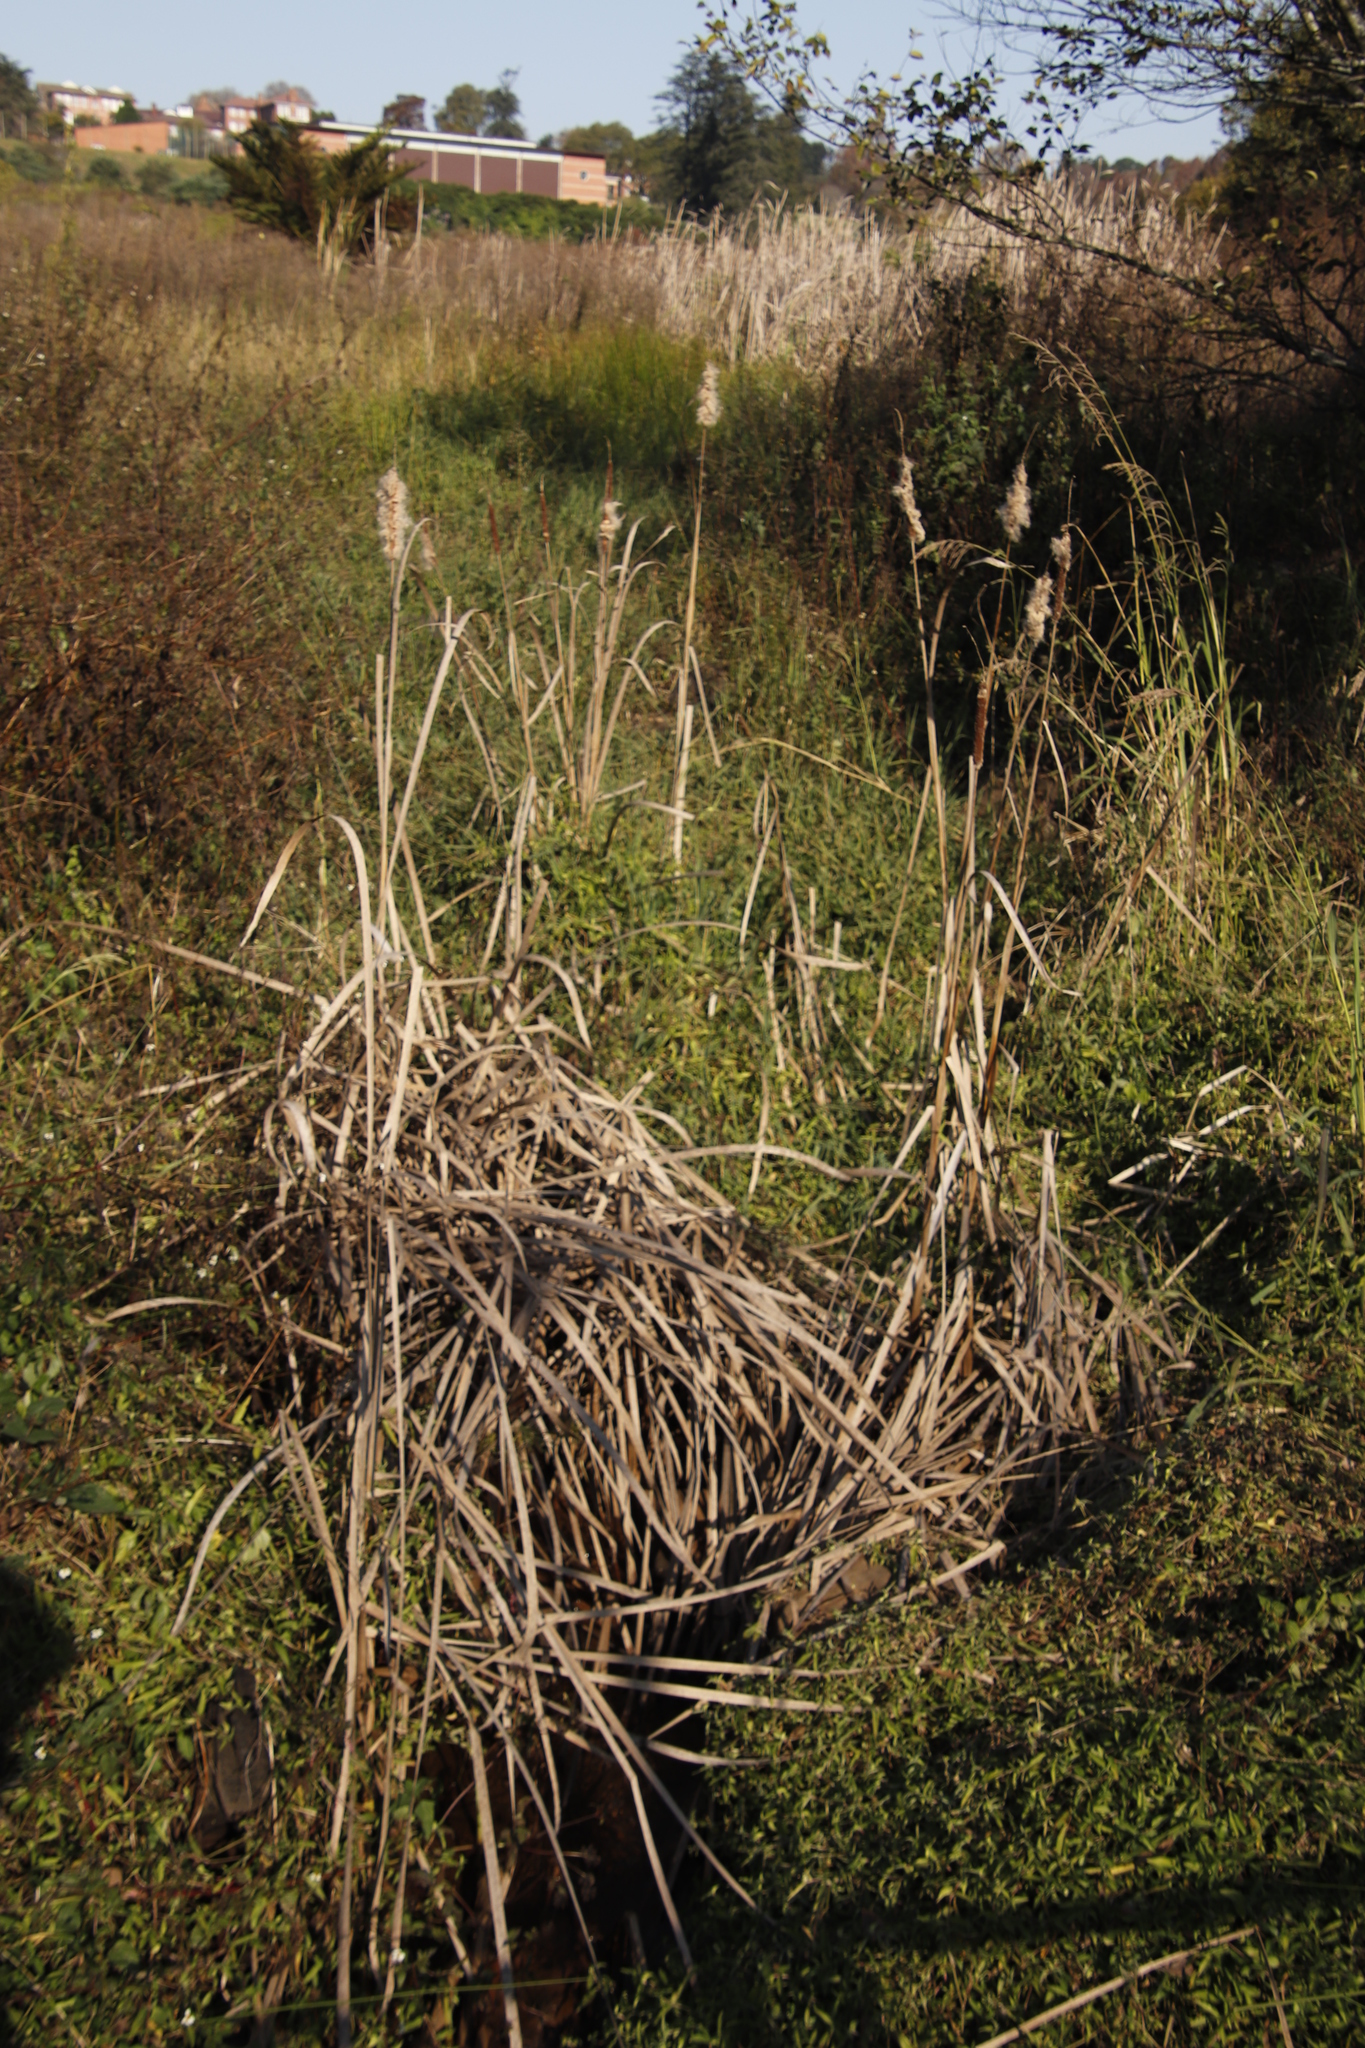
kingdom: Plantae
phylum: Tracheophyta
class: Liliopsida
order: Poales
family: Typhaceae
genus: Typha
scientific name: Typha capensis
